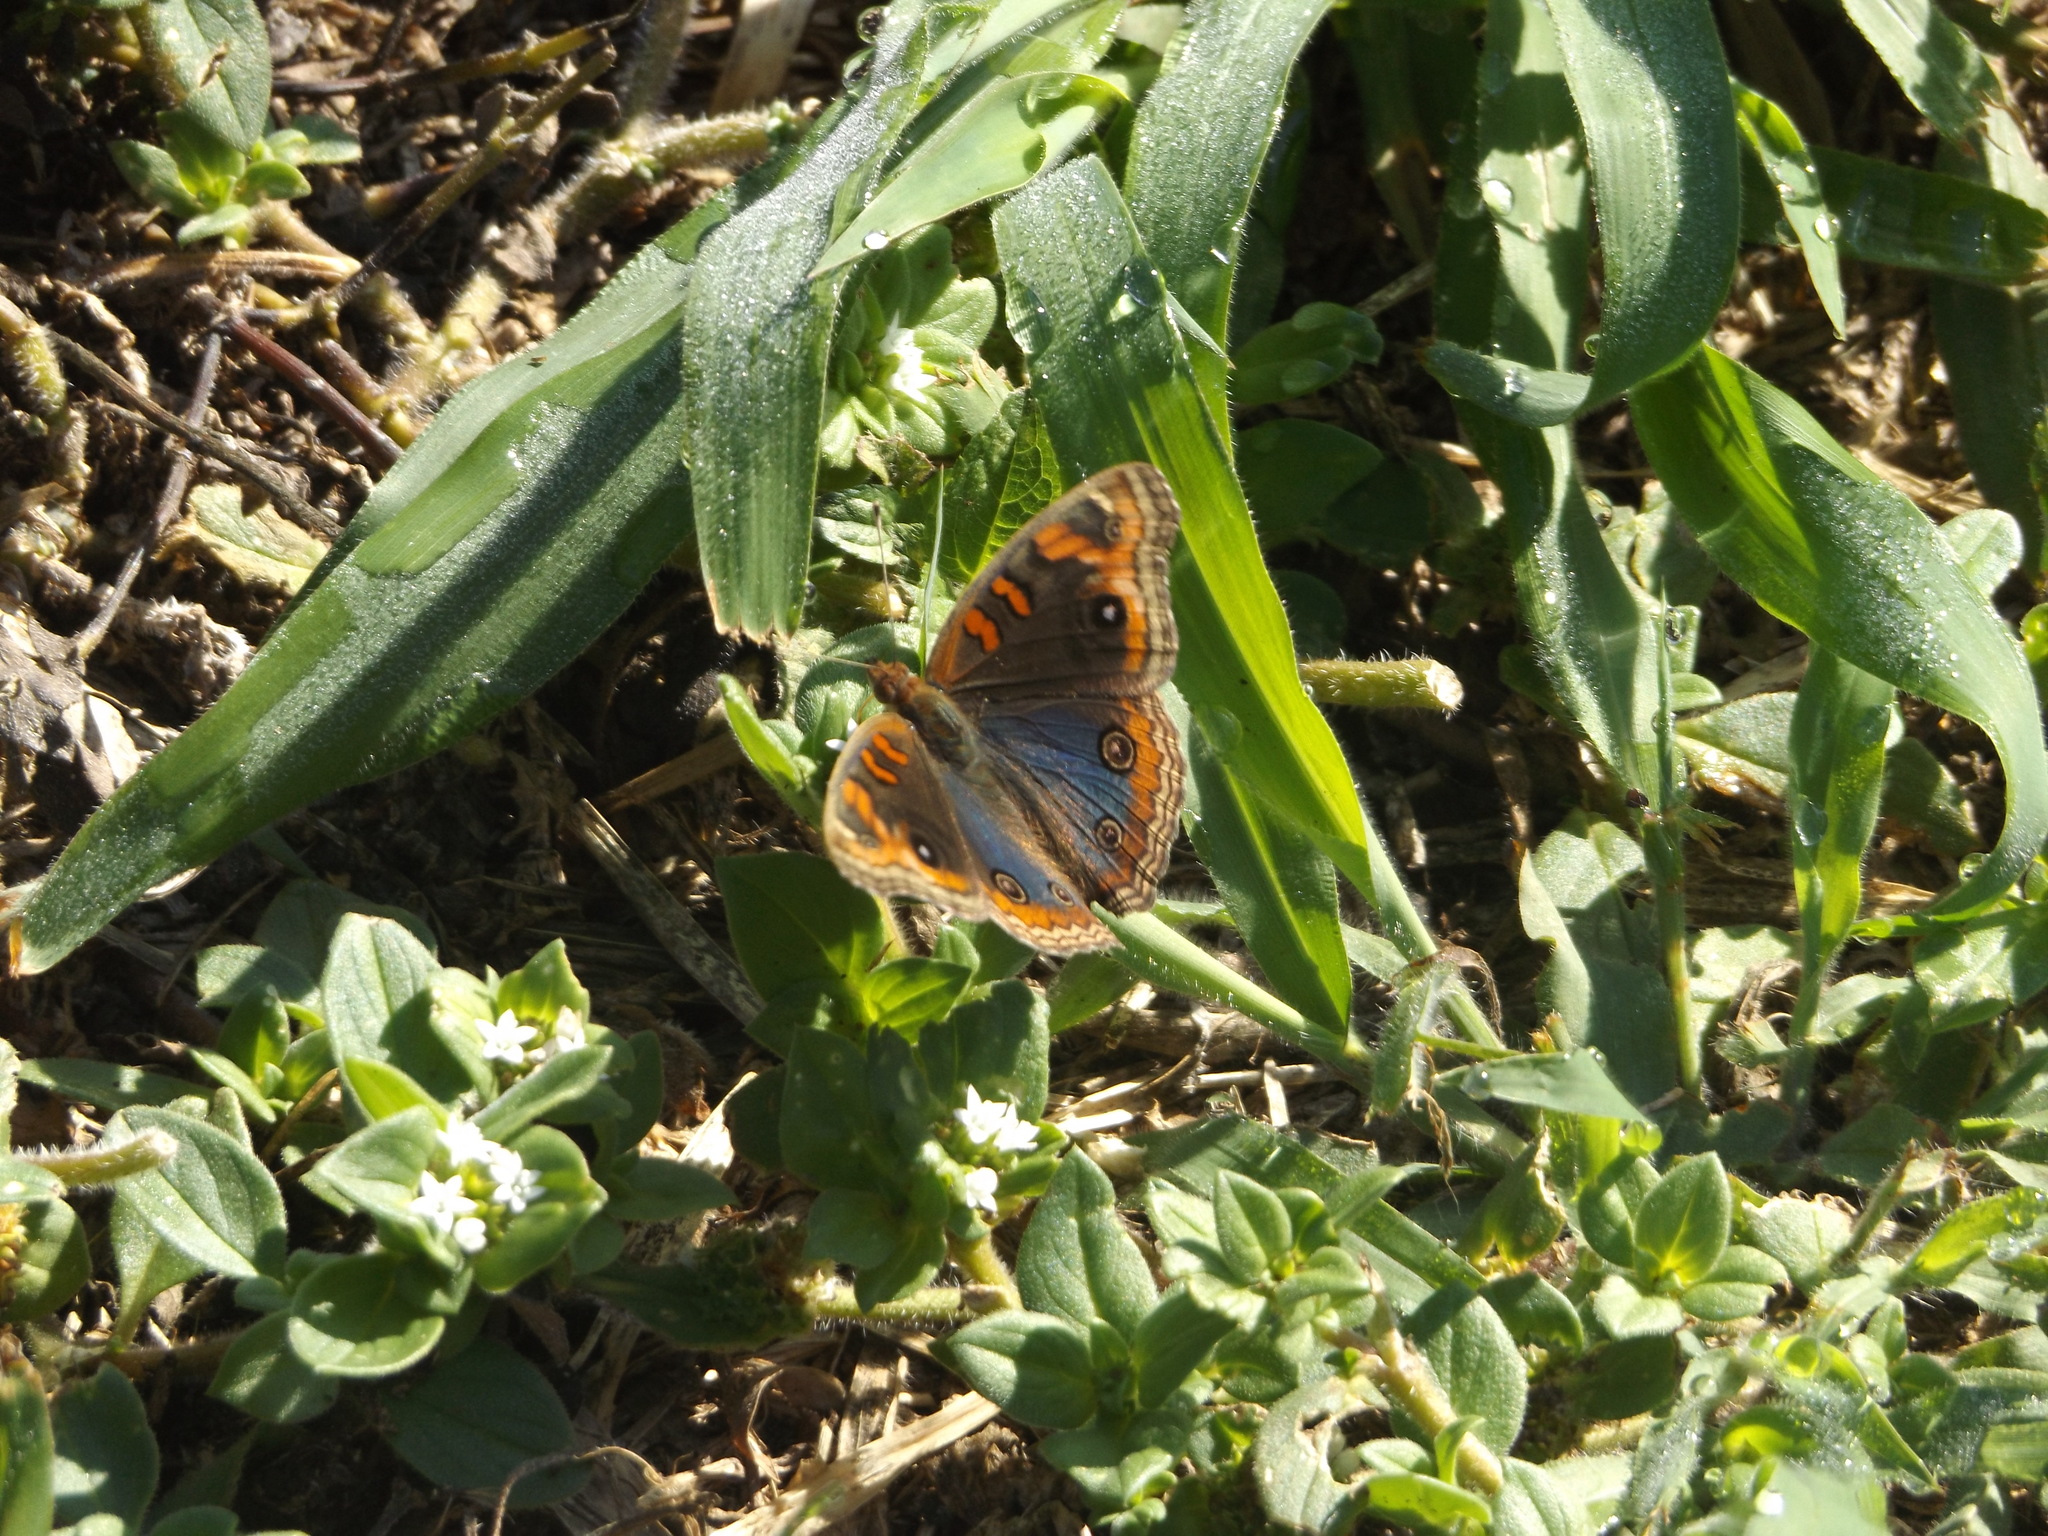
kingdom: Animalia
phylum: Arthropoda
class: Insecta
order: Lepidoptera
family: Nymphalidae
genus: Junonia
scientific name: Junonia evarete
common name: Black mangrove buckeye
